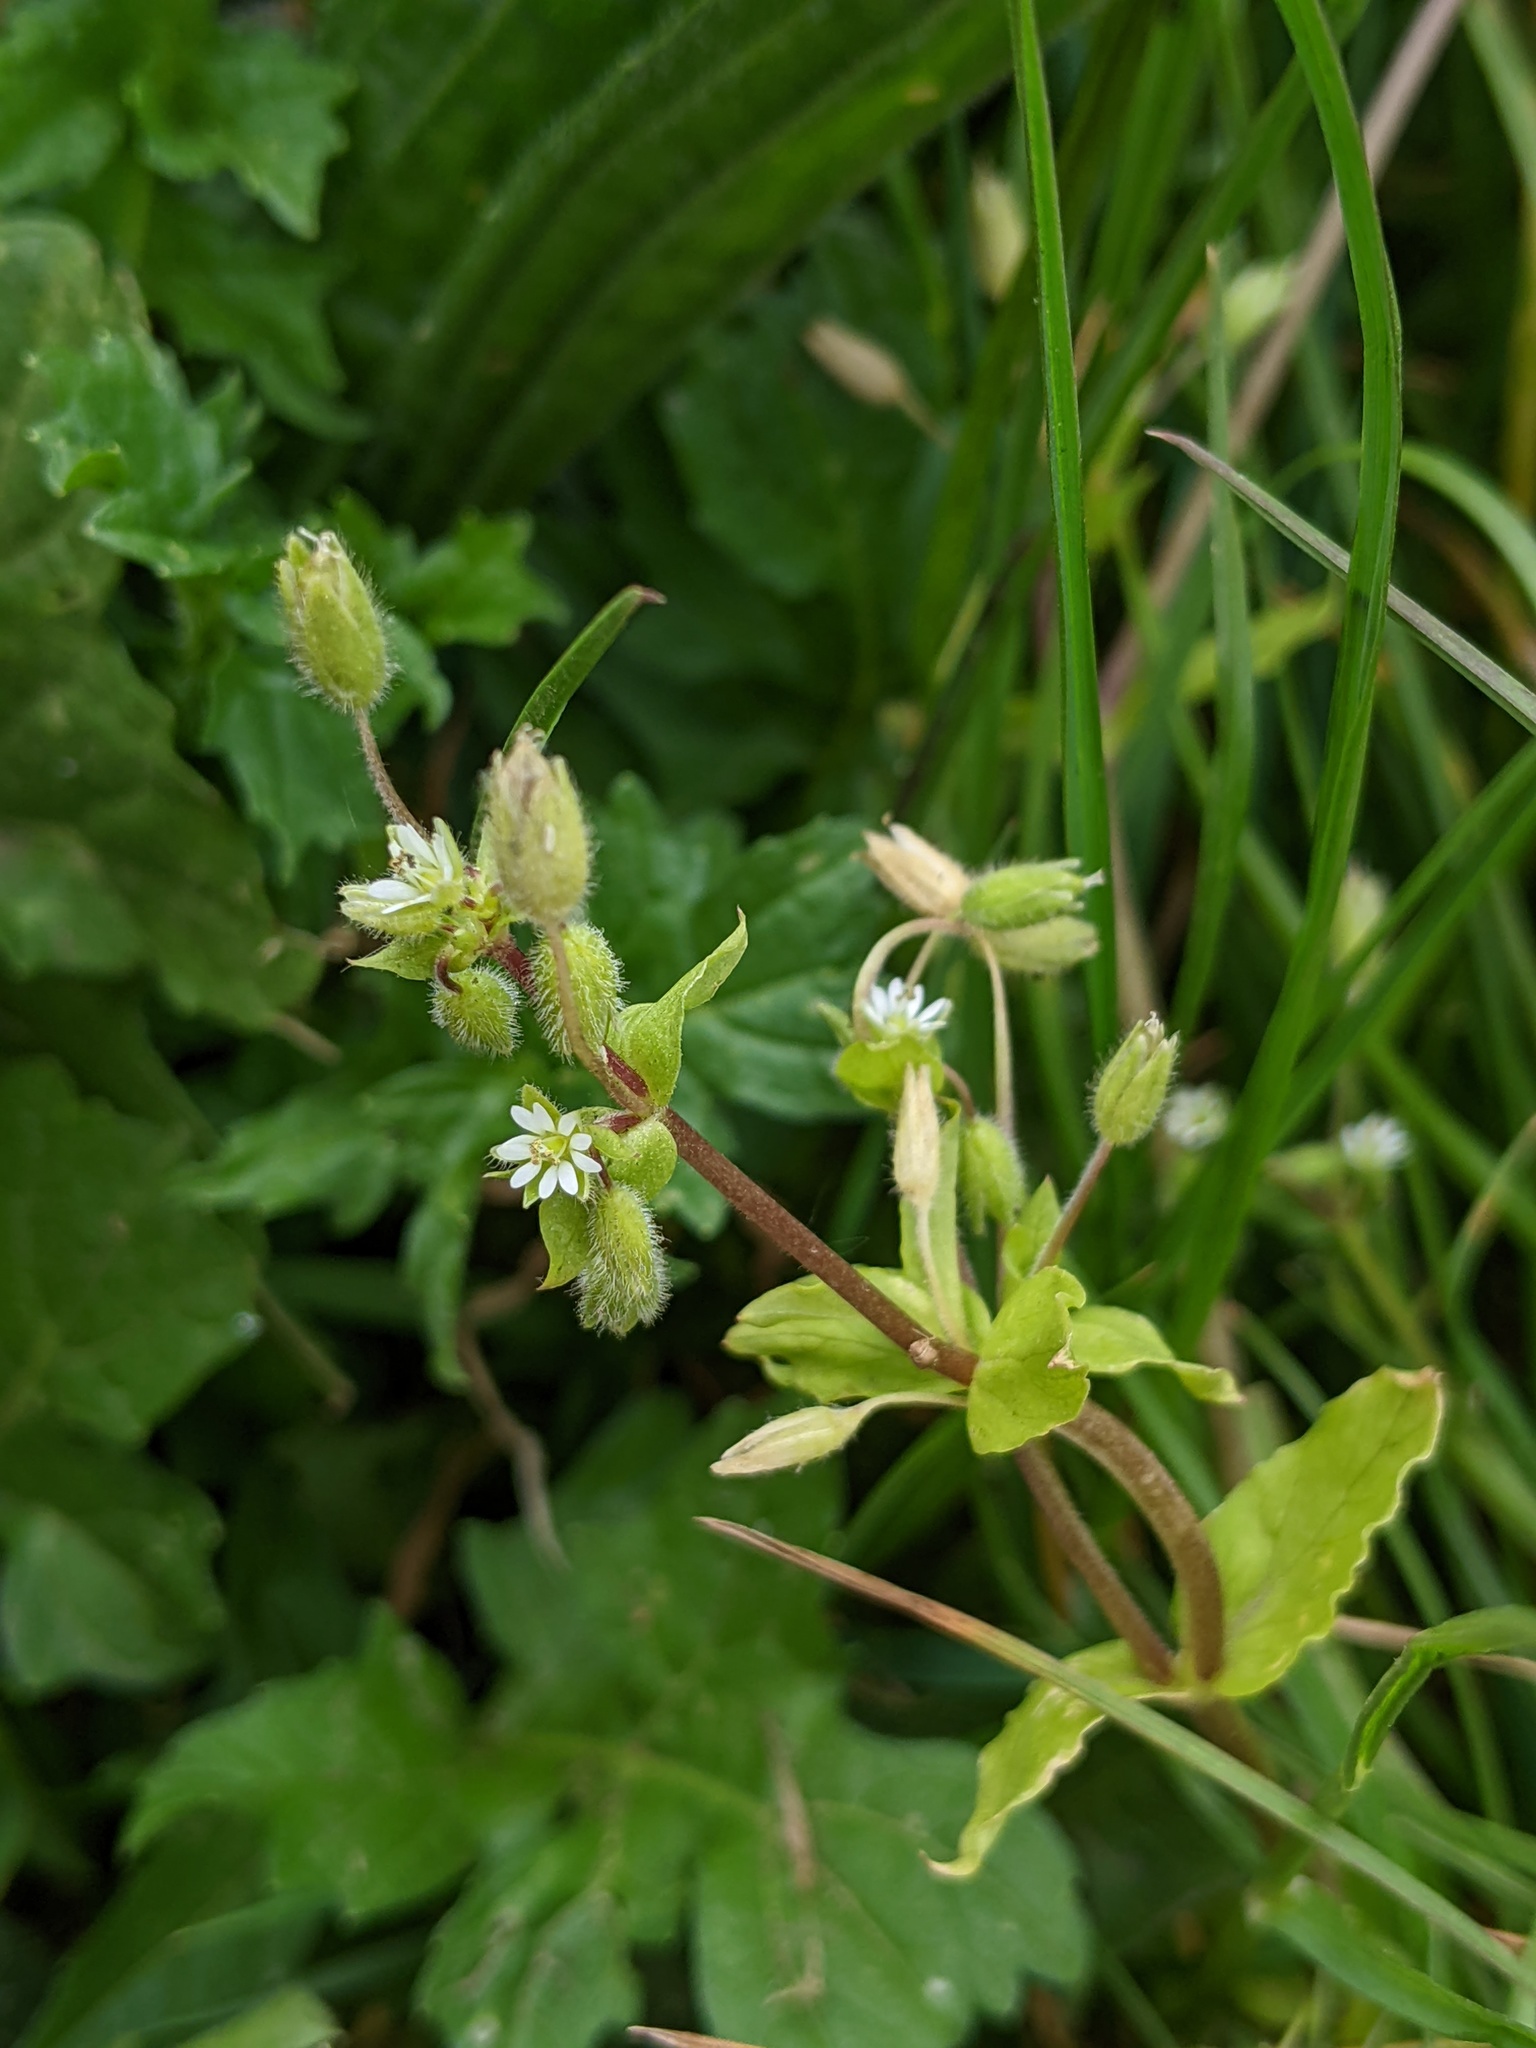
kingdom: Plantae
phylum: Tracheophyta
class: Magnoliopsida
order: Caryophyllales
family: Caryophyllaceae
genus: Stellaria
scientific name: Stellaria media
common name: Common chickweed
